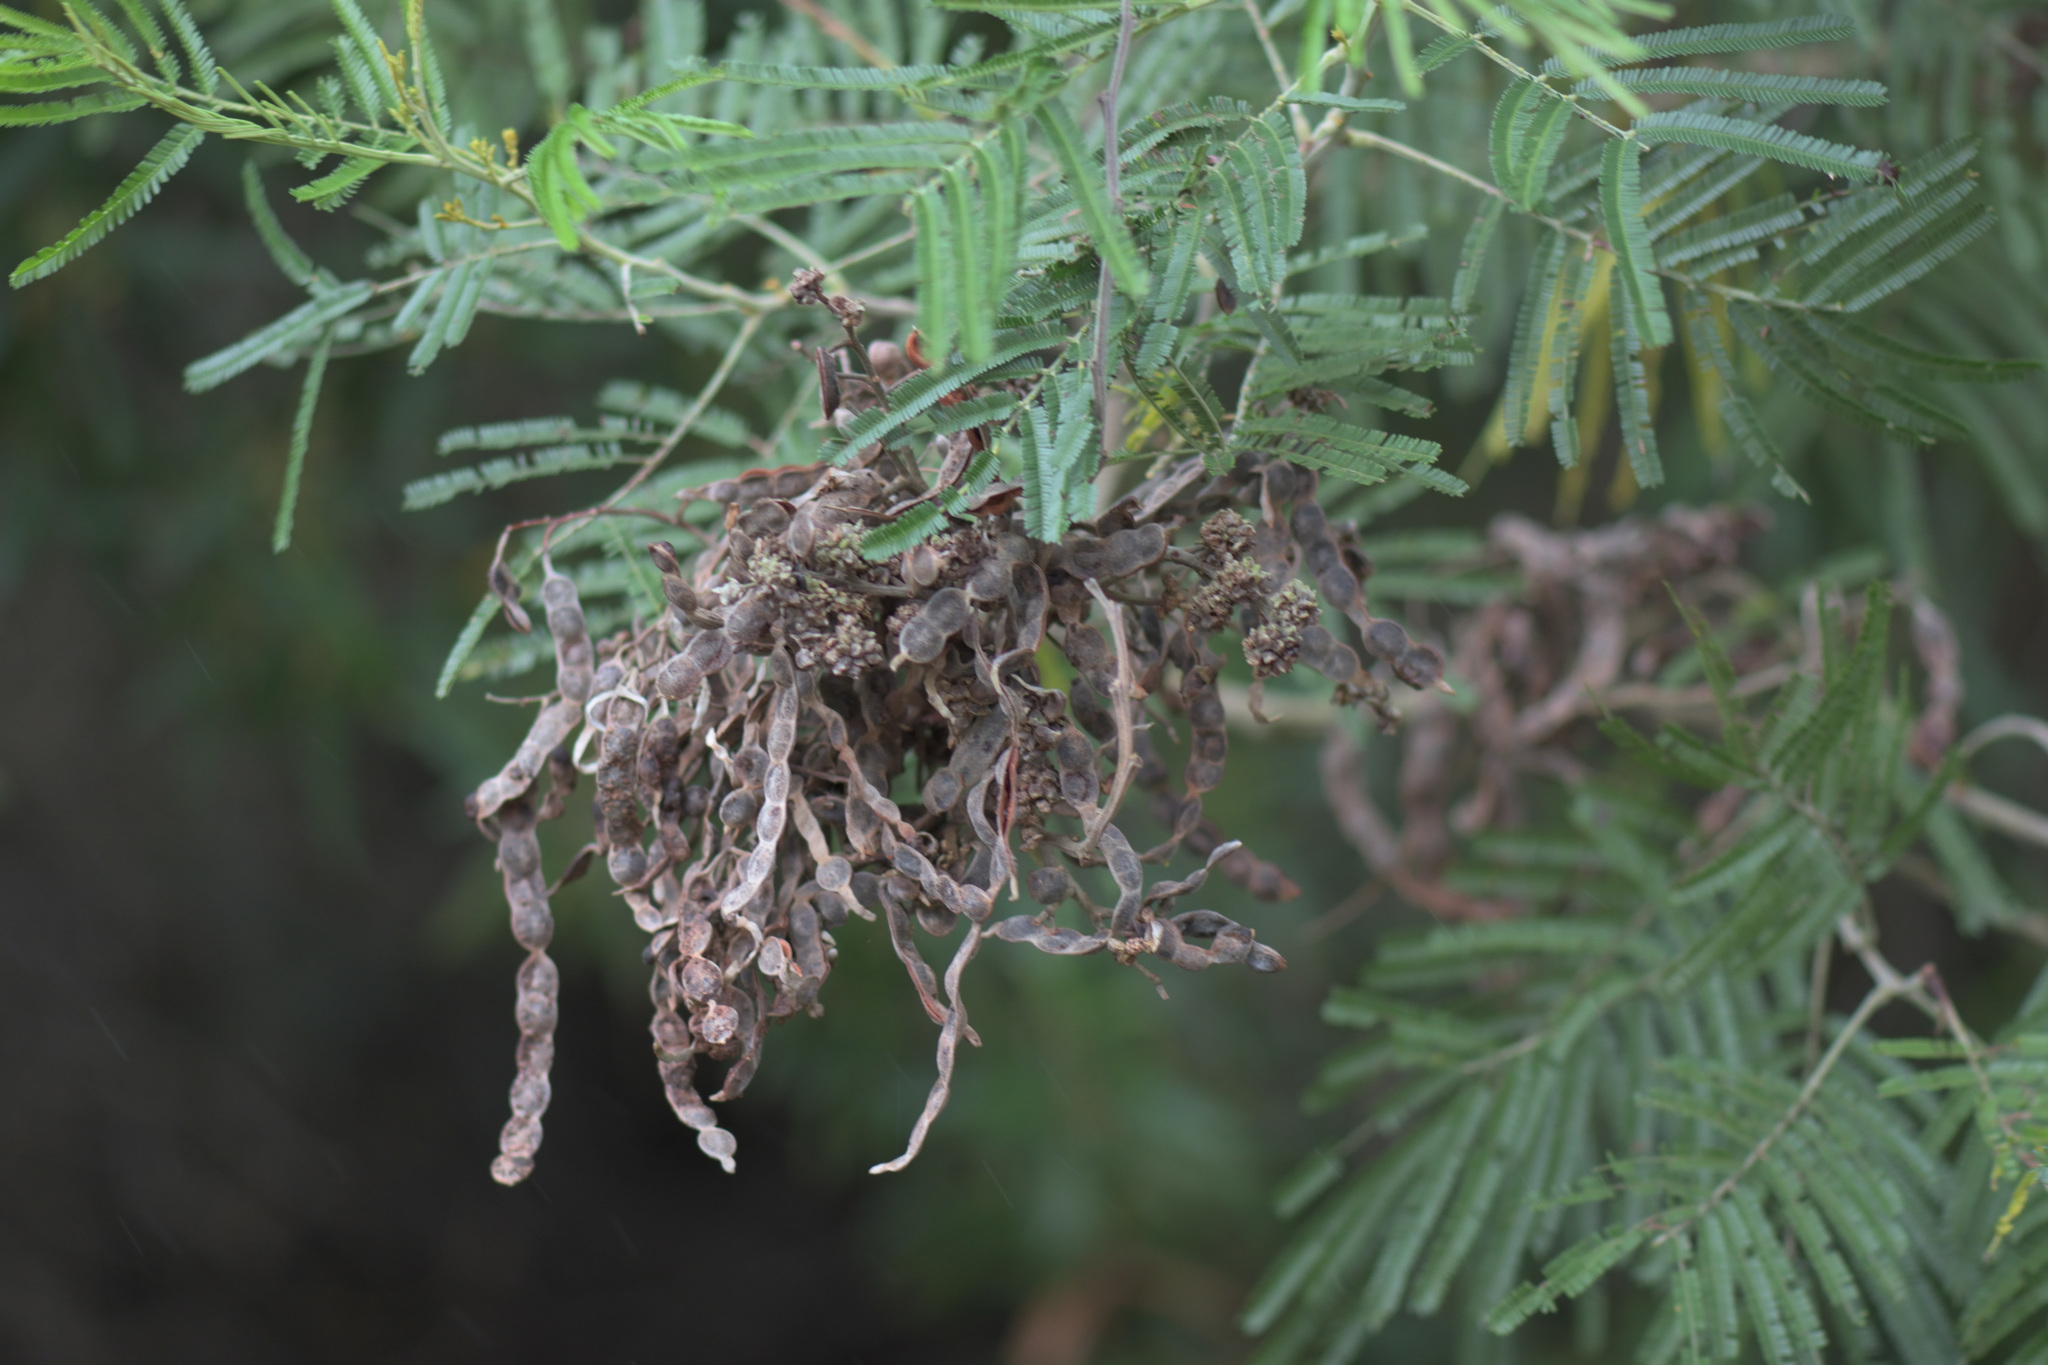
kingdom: Plantae
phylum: Tracheophyta
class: Magnoliopsida
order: Fabales
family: Fabaceae
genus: Acacia
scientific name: Acacia mearnsii
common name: Black wattle
